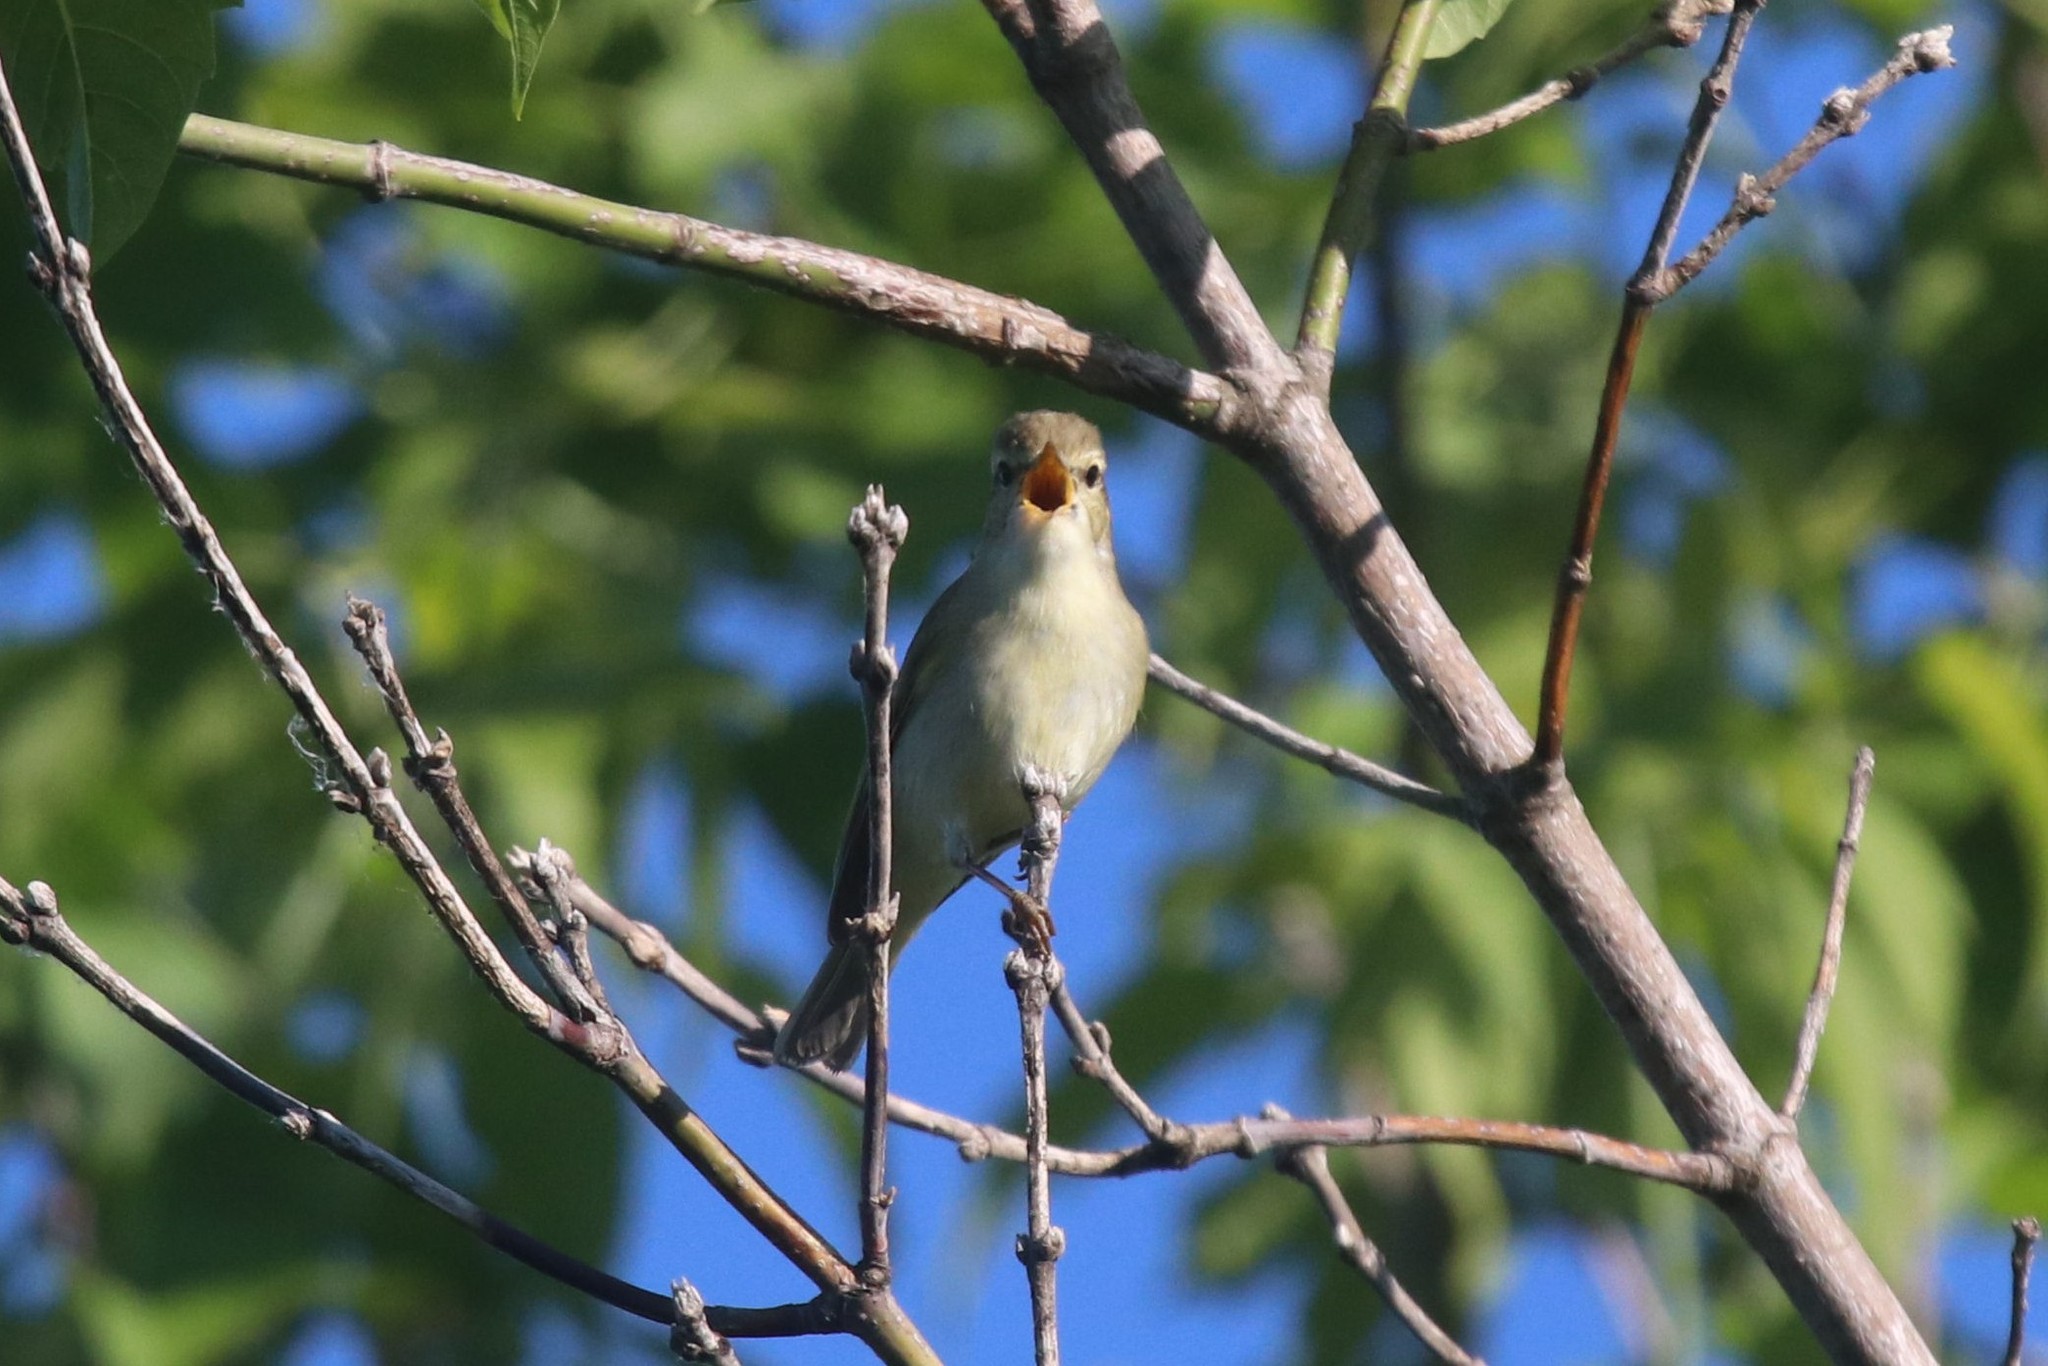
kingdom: Animalia
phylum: Chordata
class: Aves
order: Passeriformes
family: Phylloscopidae
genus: Phylloscopus
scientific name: Phylloscopus trochiloides
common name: Greenish warbler
